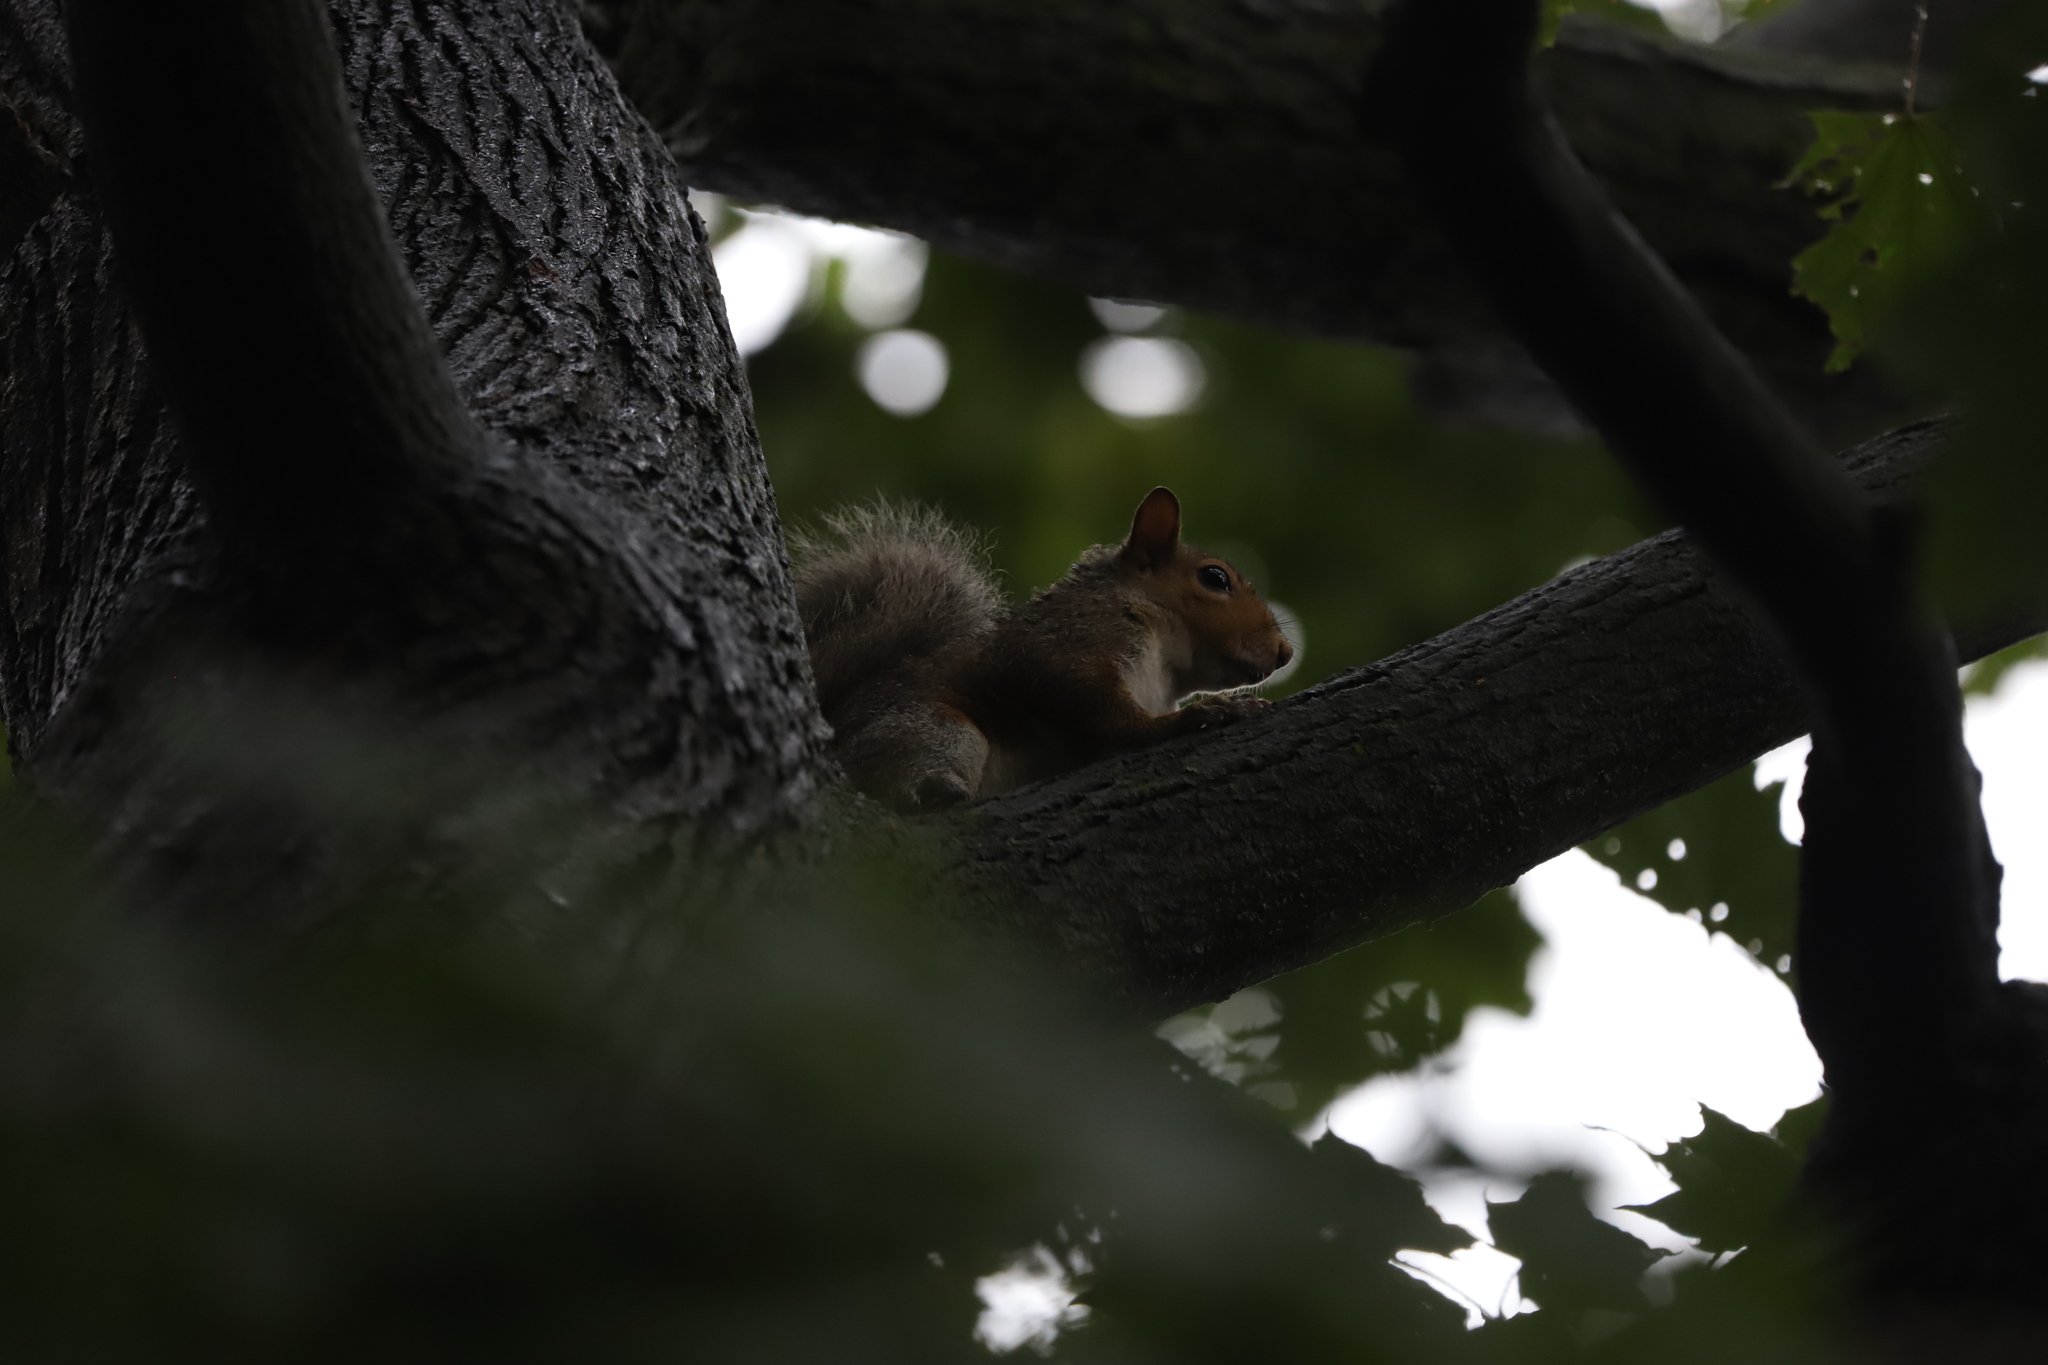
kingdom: Animalia
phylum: Chordata
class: Mammalia
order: Rodentia
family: Sciuridae
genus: Sciurus
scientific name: Sciurus carolinensis
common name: Eastern gray squirrel
